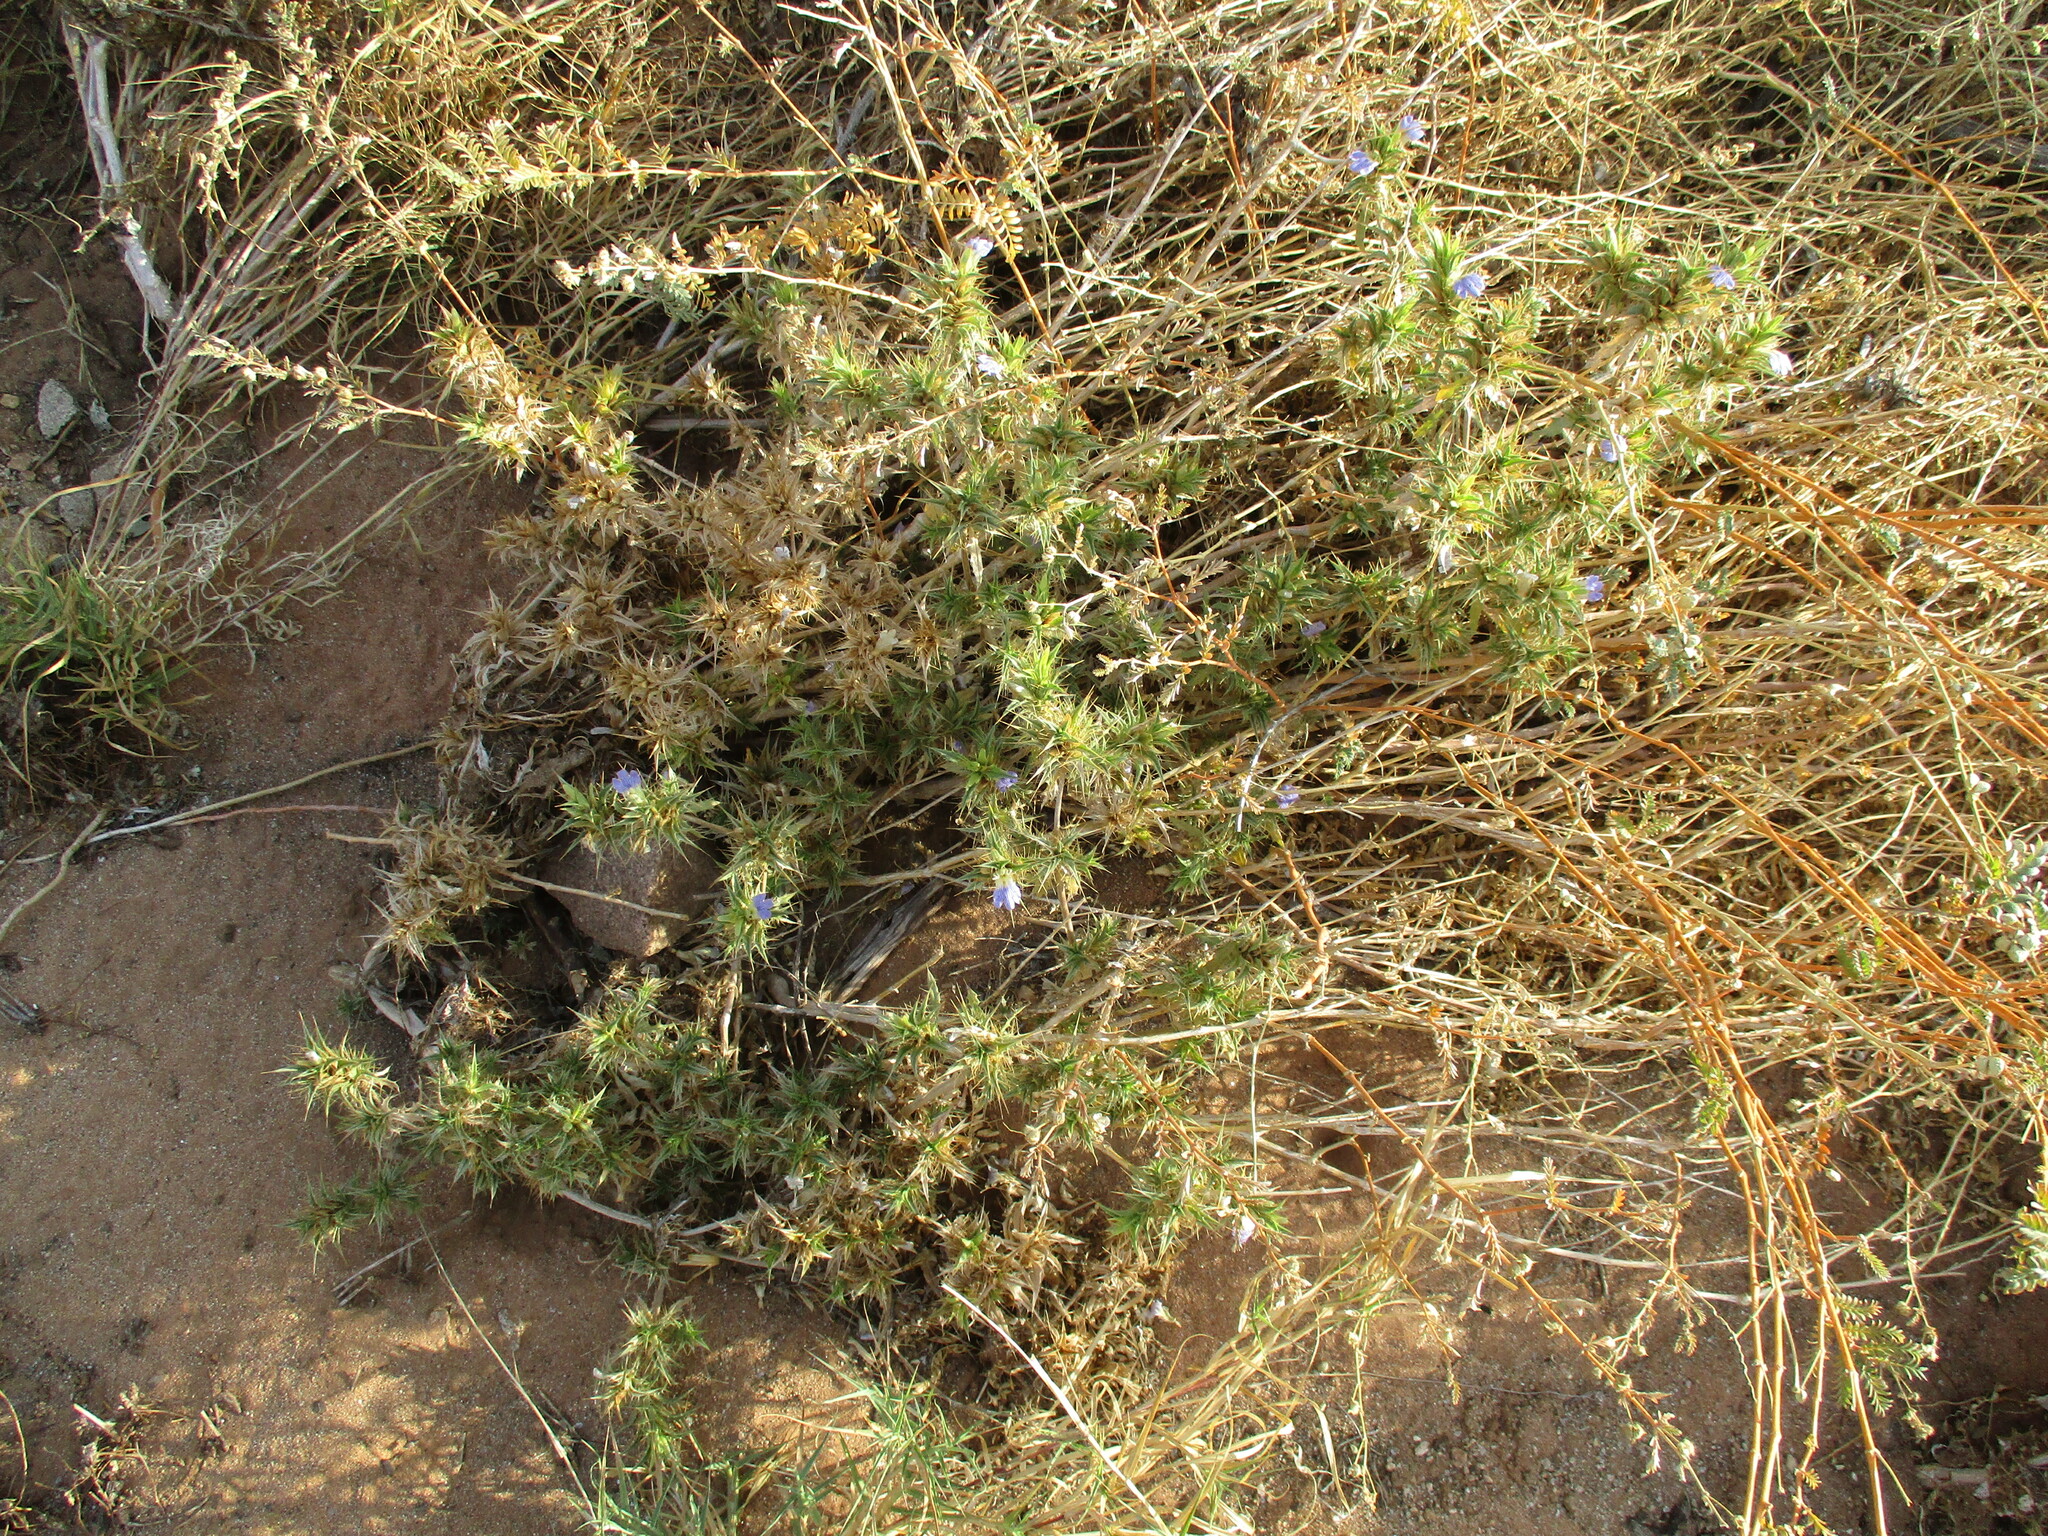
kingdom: Plantae
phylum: Tracheophyta
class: Magnoliopsida
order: Lamiales
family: Acanthaceae
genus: Blepharis
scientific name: Blepharis obmitrata
